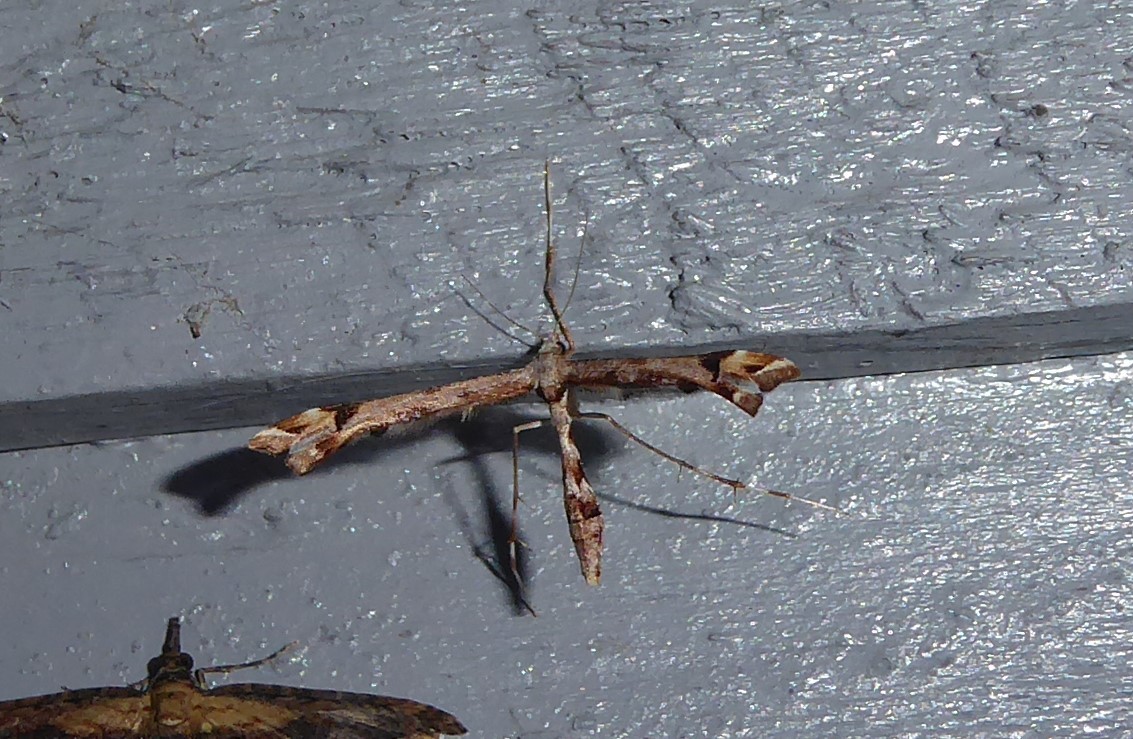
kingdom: Animalia
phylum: Arthropoda
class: Insecta
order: Lepidoptera
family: Pterophoridae
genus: Amblyptilia
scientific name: Amblyptilia falcatalis
